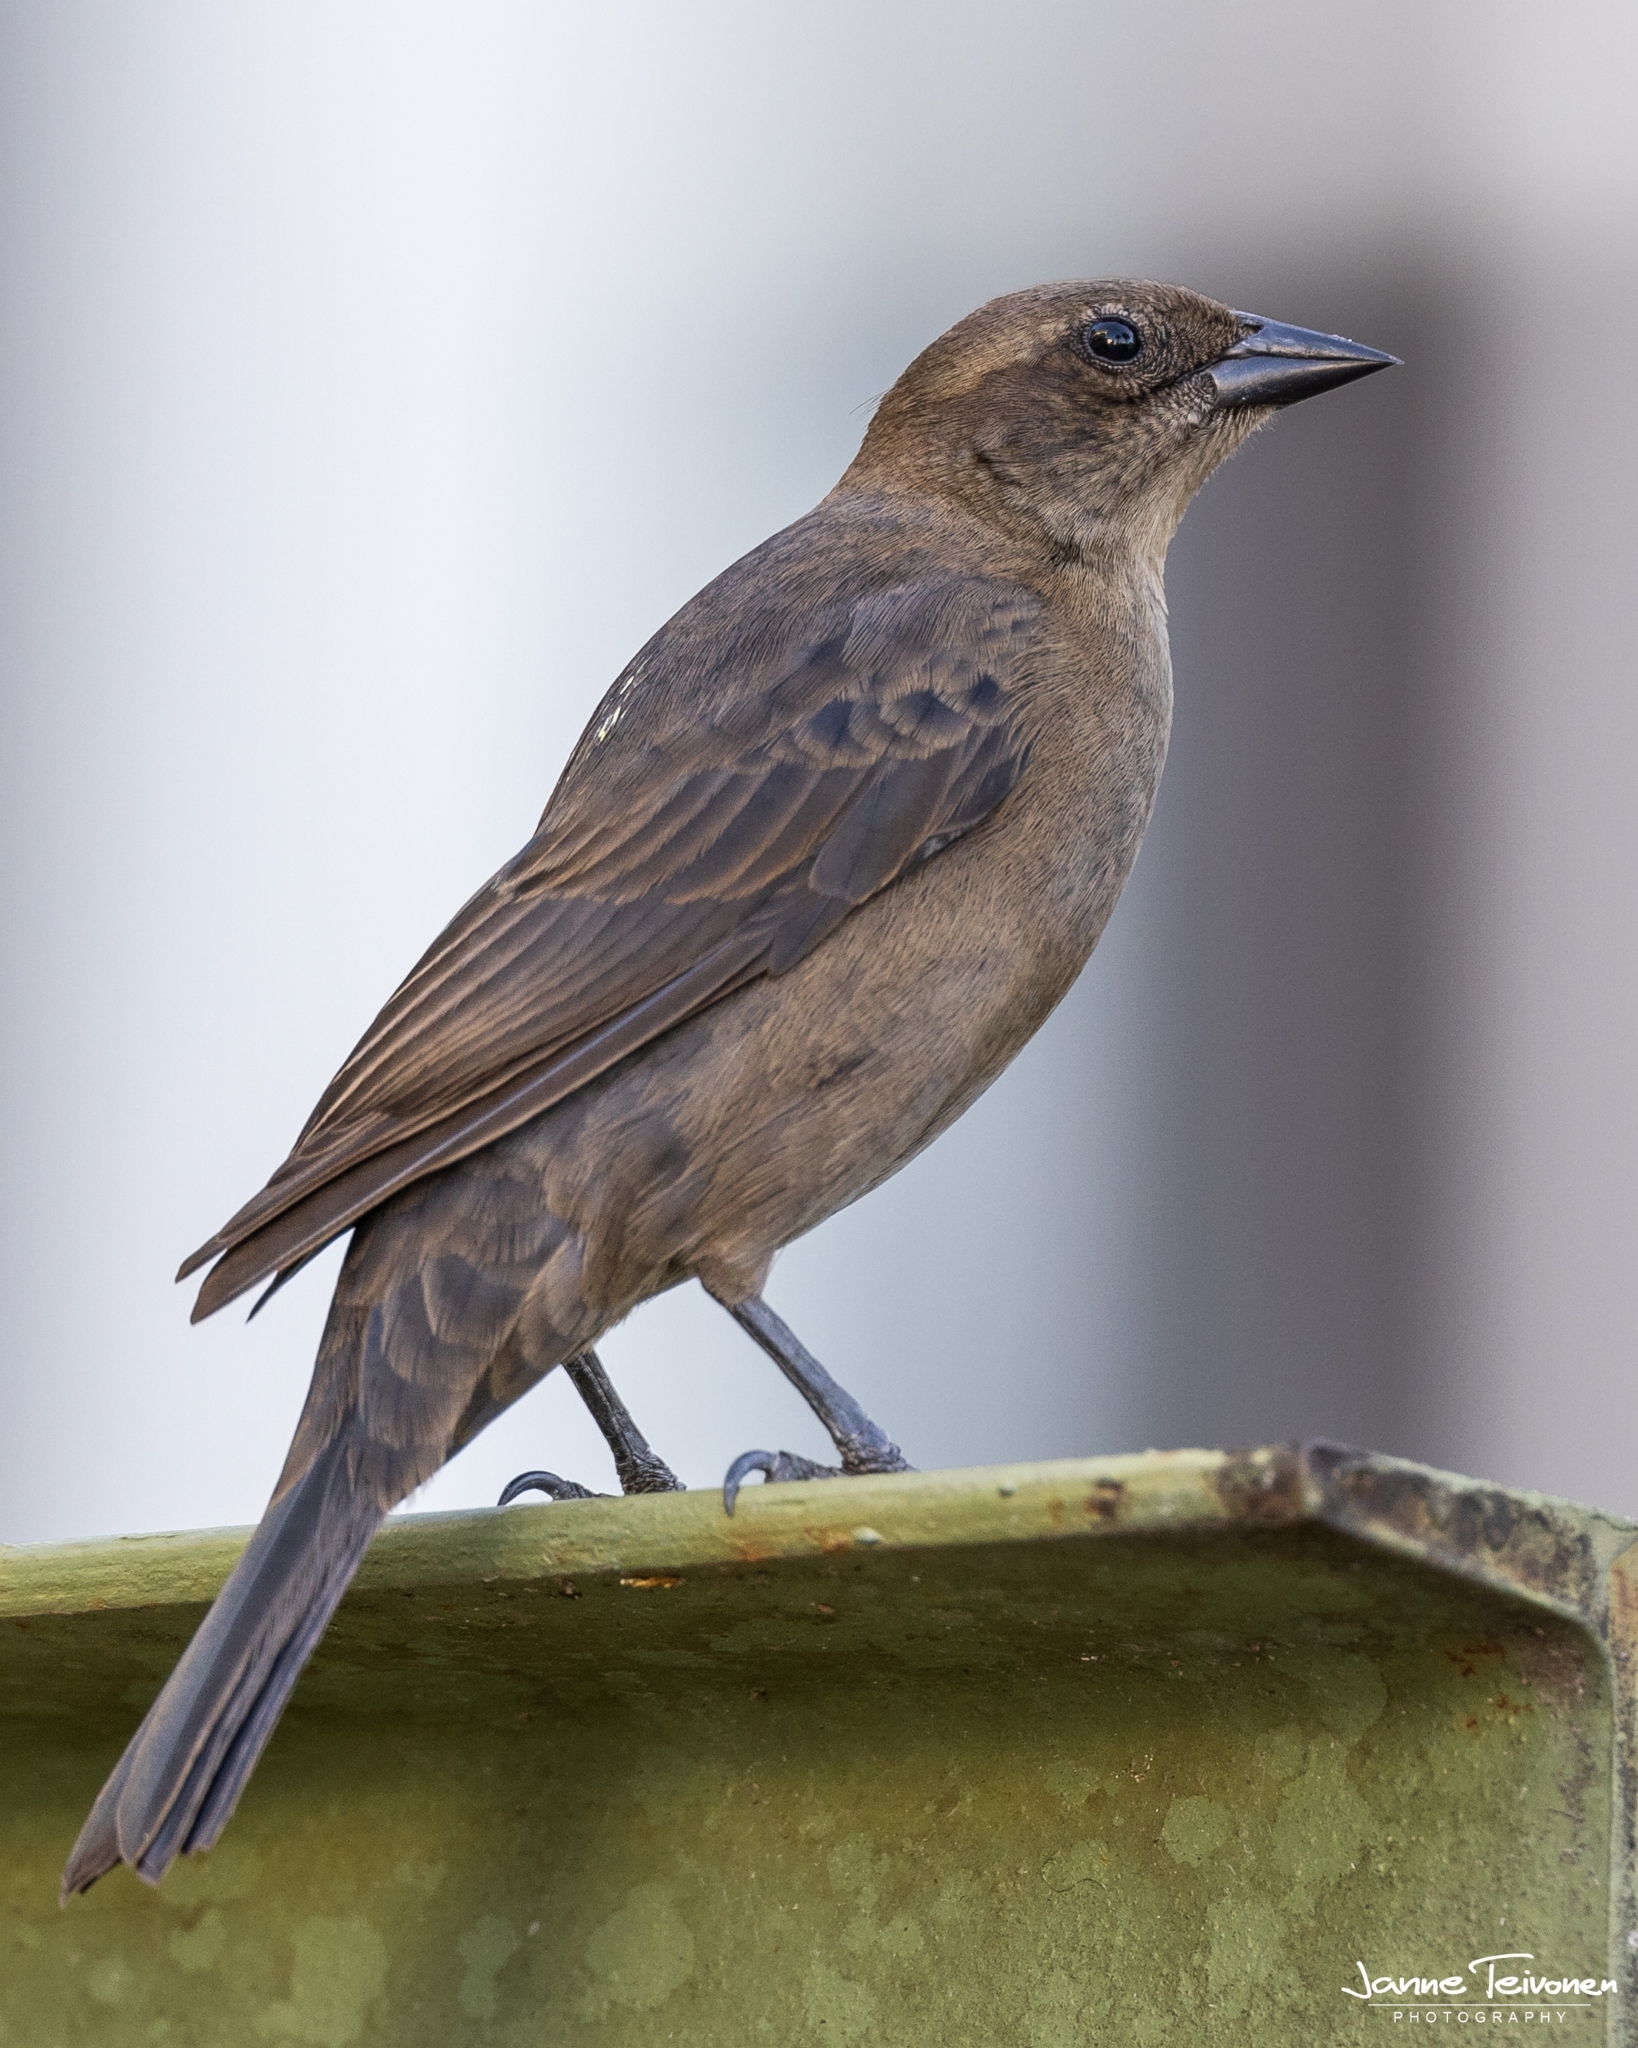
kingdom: Animalia
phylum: Chordata
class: Aves
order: Passeriformes
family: Icteridae
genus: Molothrus
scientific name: Molothrus bonariensis
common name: Shiny cowbird
